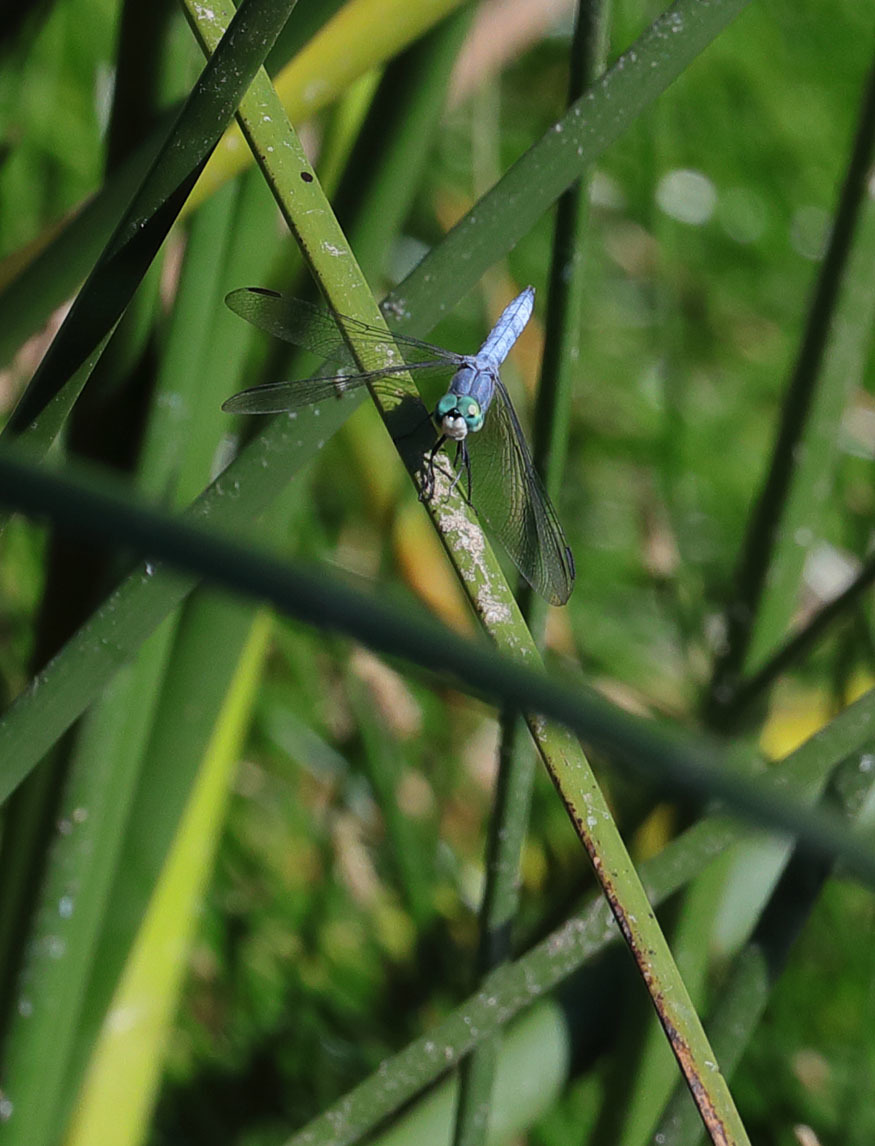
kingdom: Animalia
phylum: Arthropoda
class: Insecta
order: Odonata
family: Libellulidae
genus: Pachydiplax
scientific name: Pachydiplax longipennis
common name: Blue dasher
